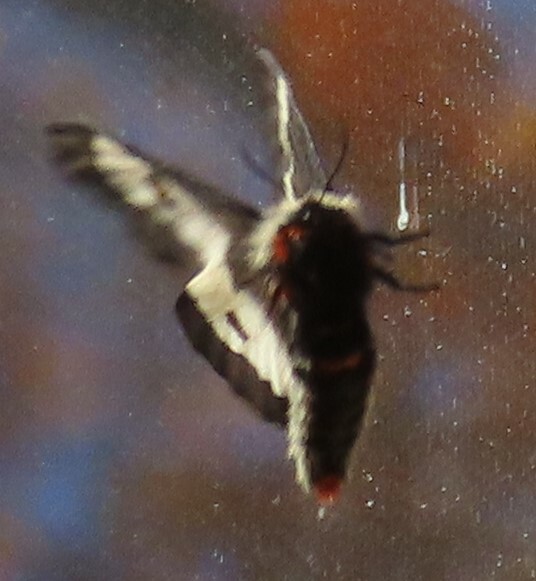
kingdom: Animalia
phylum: Arthropoda
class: Insecta
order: Lepidoptera
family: Saturniidae
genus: Hemileuca
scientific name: Hemileuca maia
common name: Eastern buckmoth
